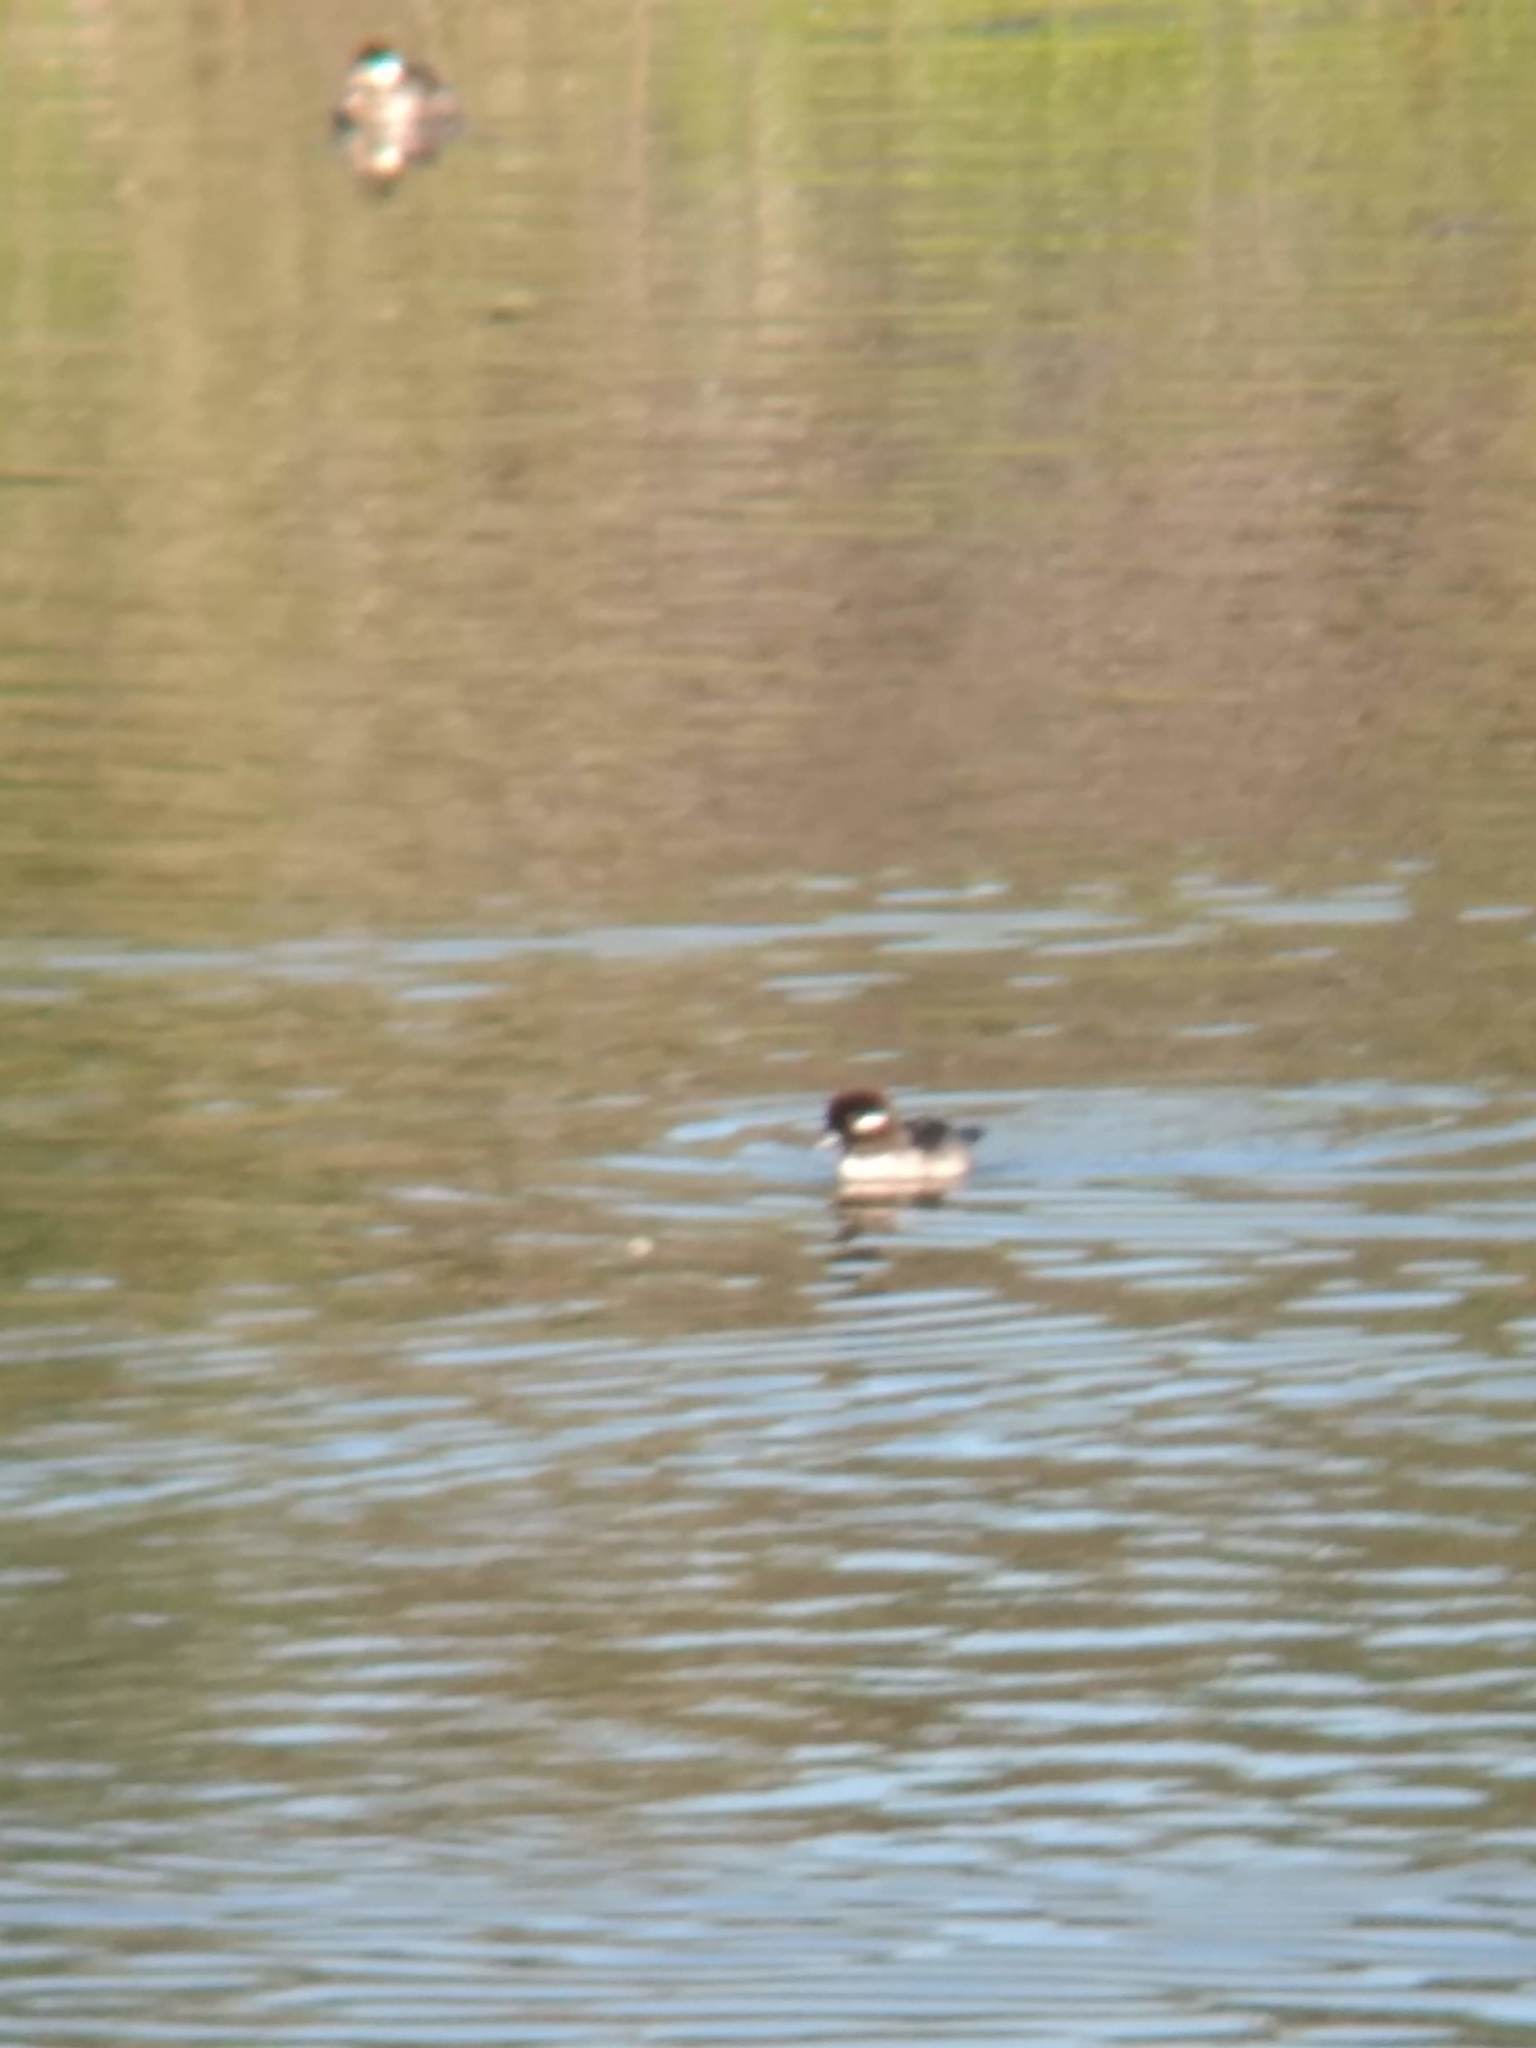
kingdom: Animalia
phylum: Chordata
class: Aves
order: Anseriformes
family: Anatidae
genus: Bucephala
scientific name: Bucephala albeola
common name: Bufflehead
